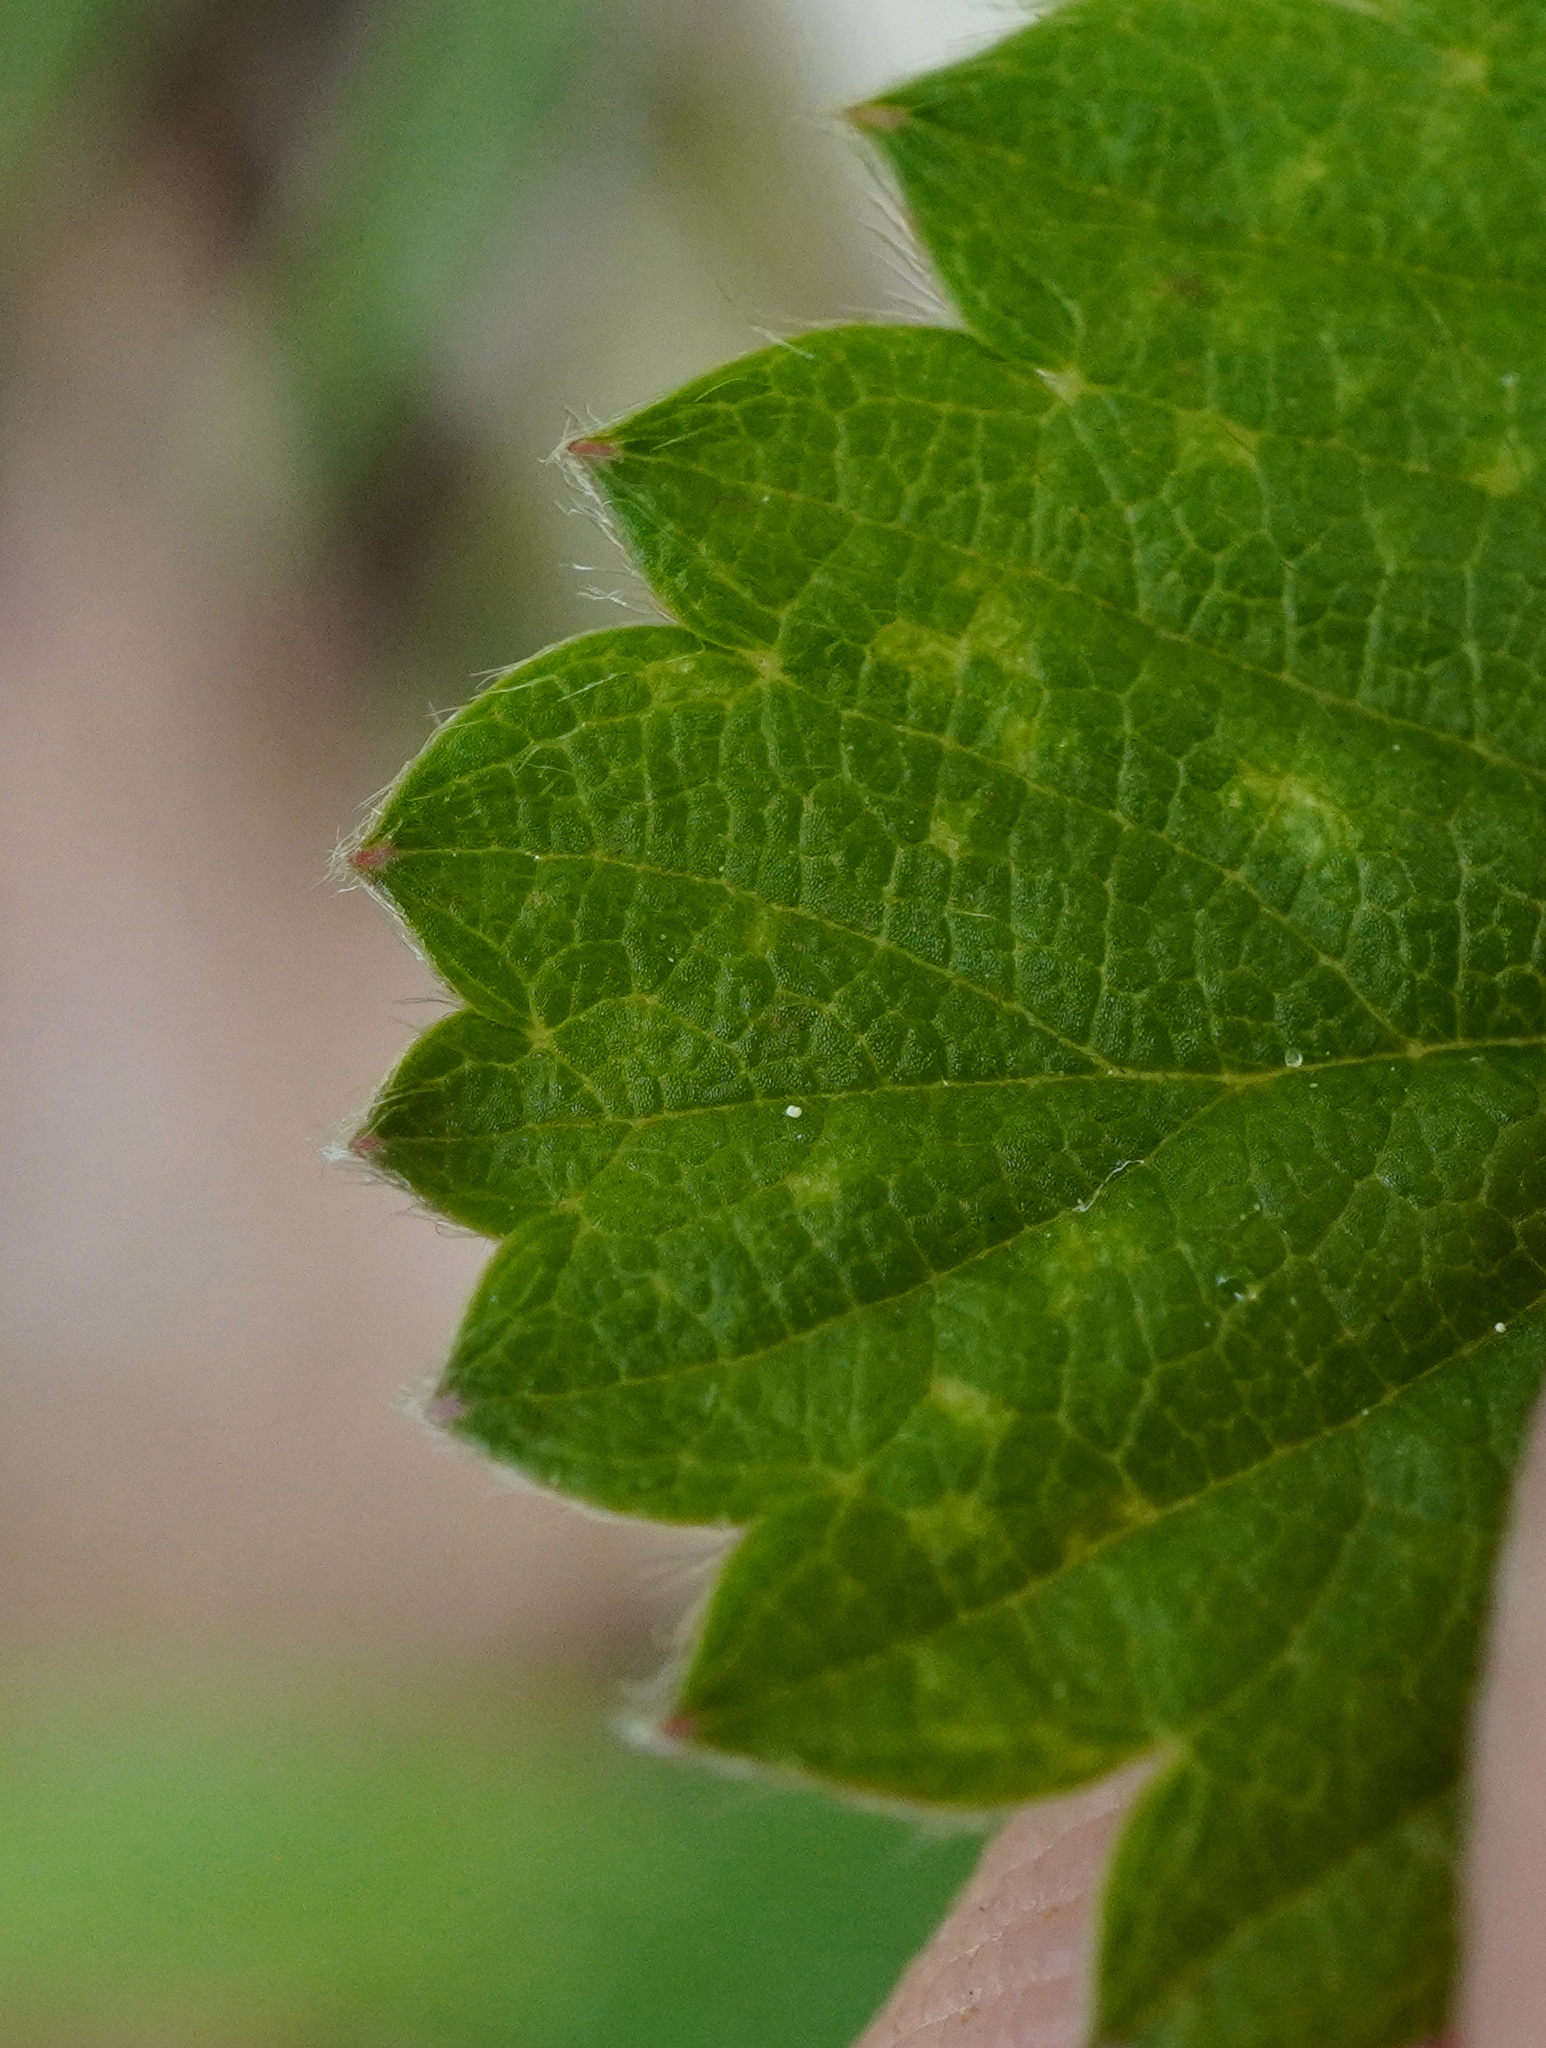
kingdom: Plantae
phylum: Tracheophyta
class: Magnoliopsida
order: Rosales
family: Rosaceae
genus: Fragaria
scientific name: Fragaria viridis
